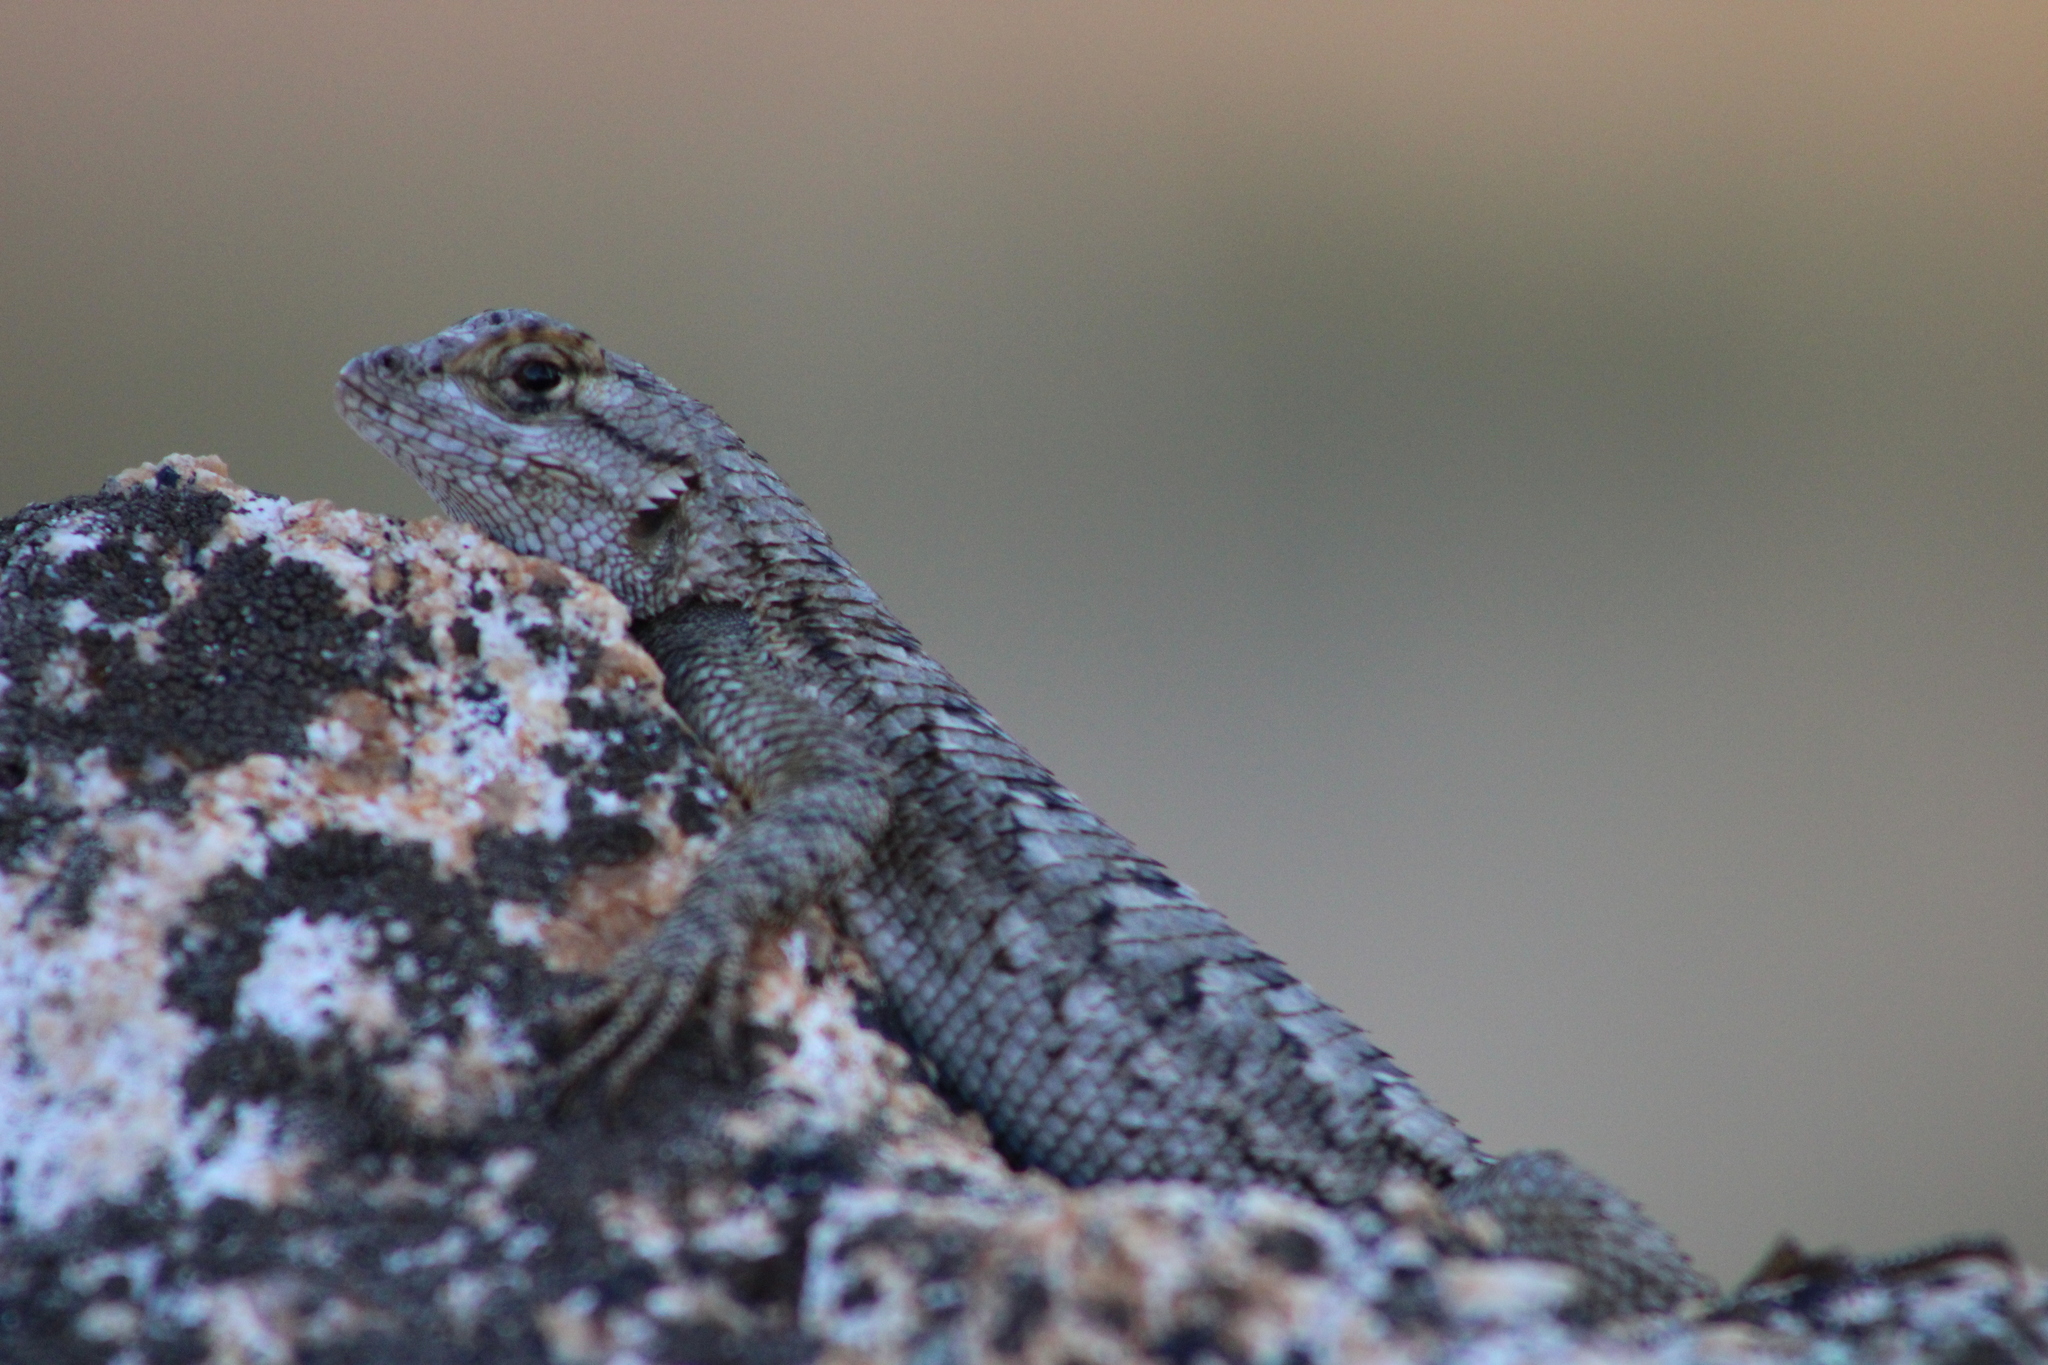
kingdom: Animalia
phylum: Chordata
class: Squamata
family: Phrynosomatidae
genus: Sceloporus
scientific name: Sceloporus occidentalis
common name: Western fence lizard
